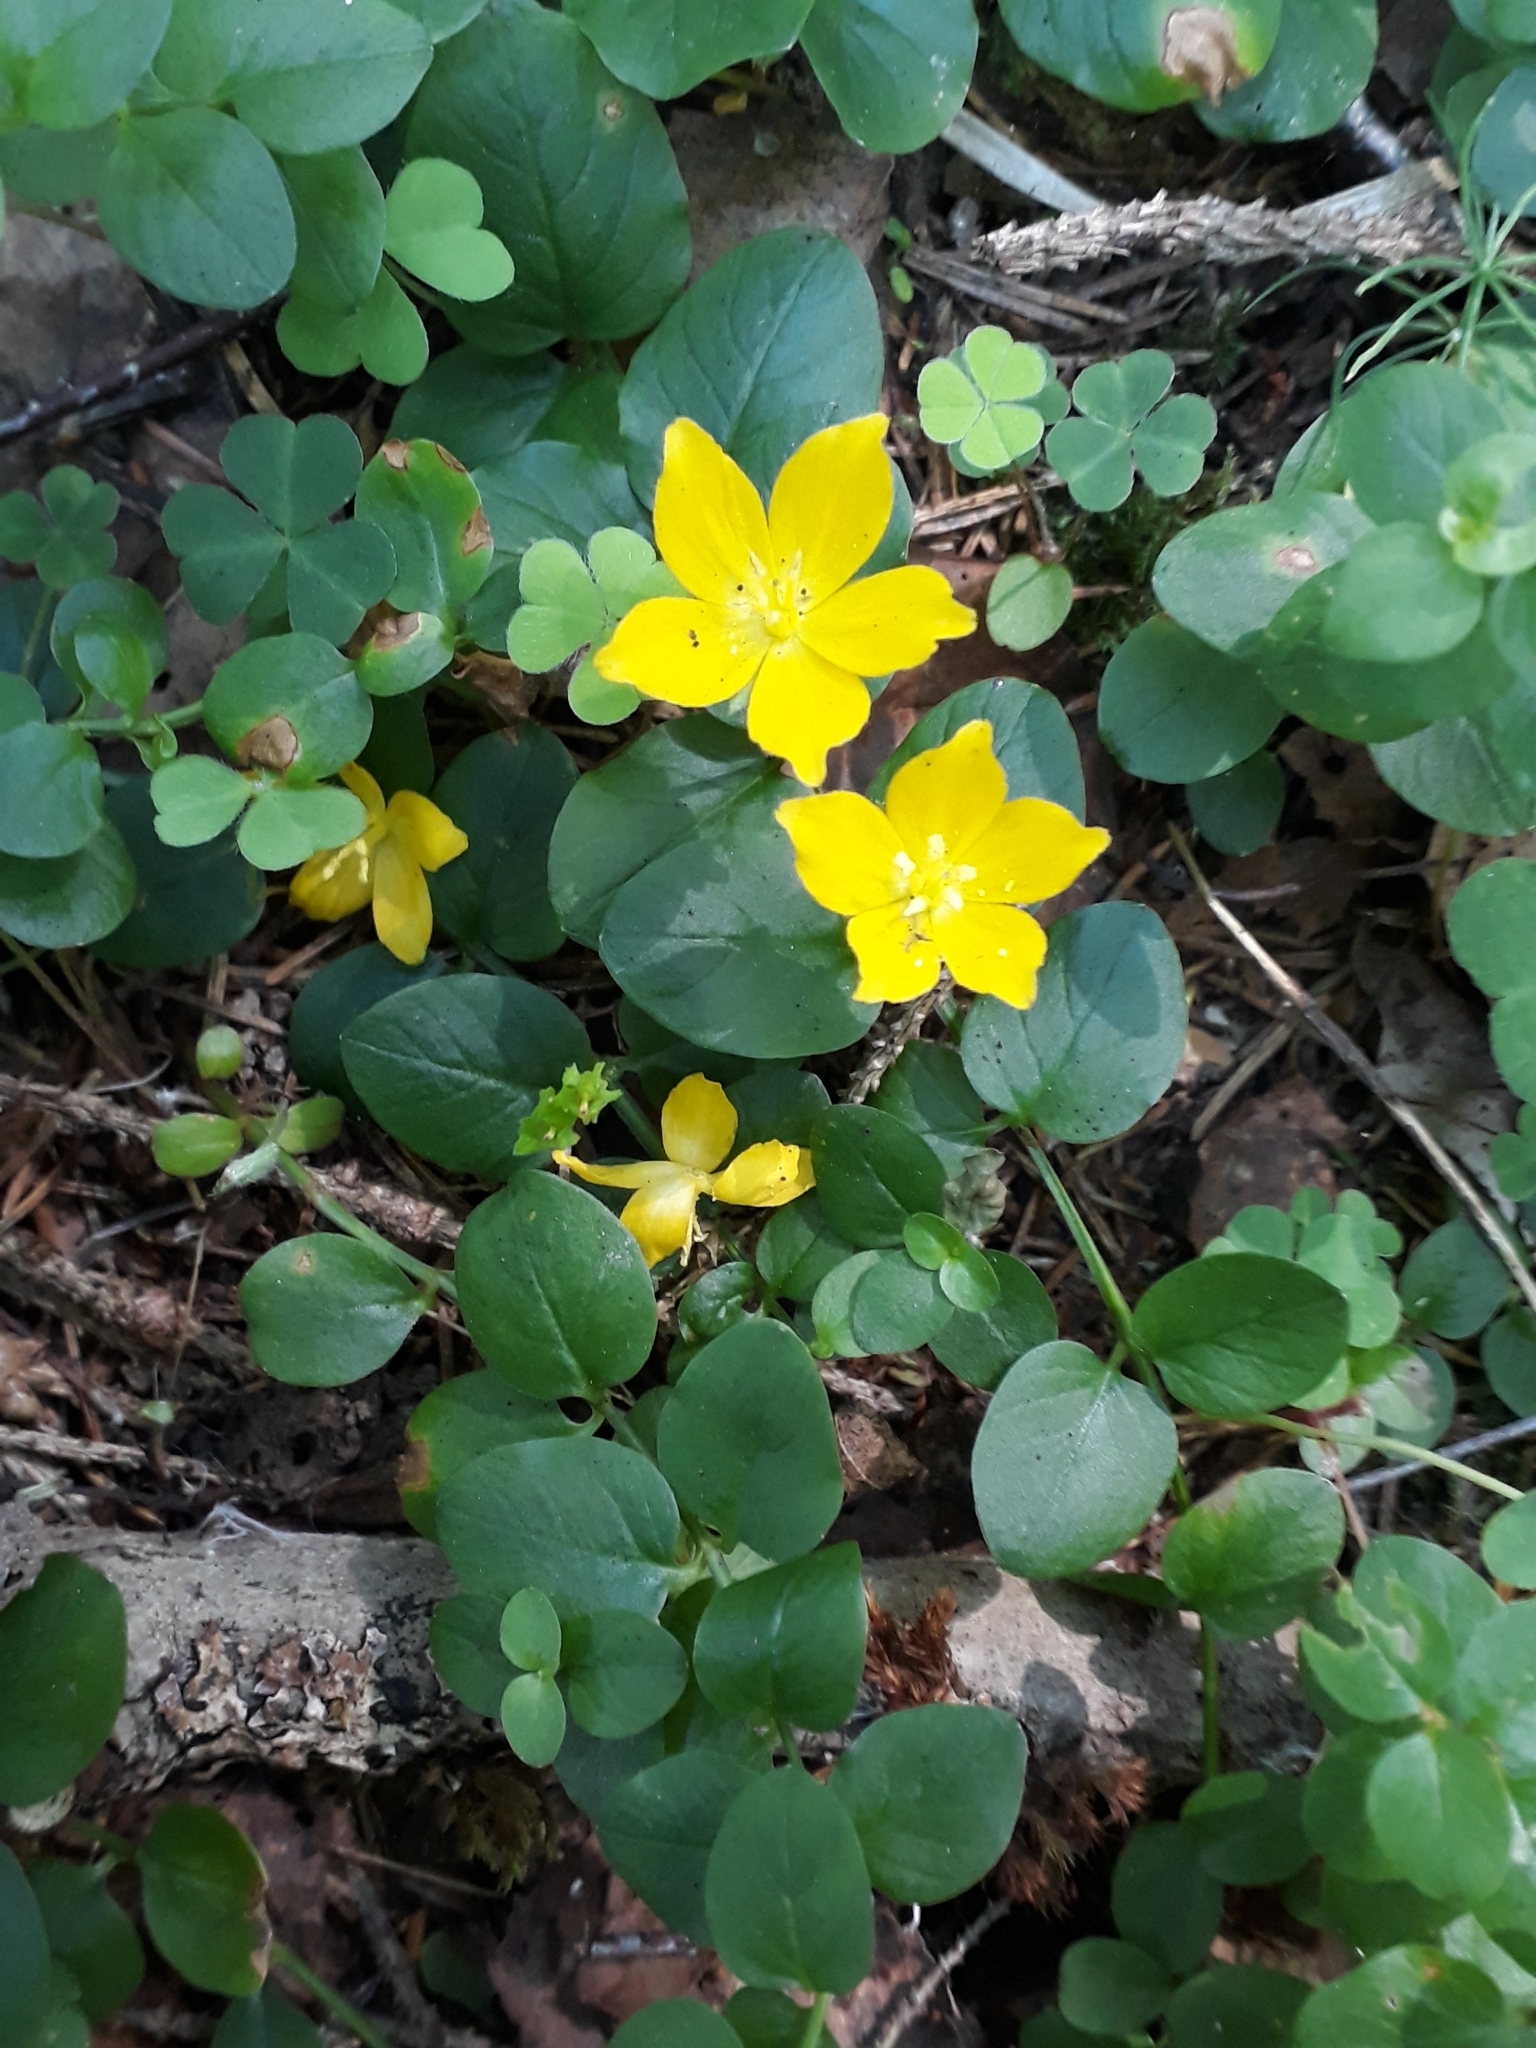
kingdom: Plantae
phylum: Tracheophyta
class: Magnoliopsida
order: Ericales
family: Primulaceae
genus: Lysimachia
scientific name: Lysimachia nummularia
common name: Moneywort
